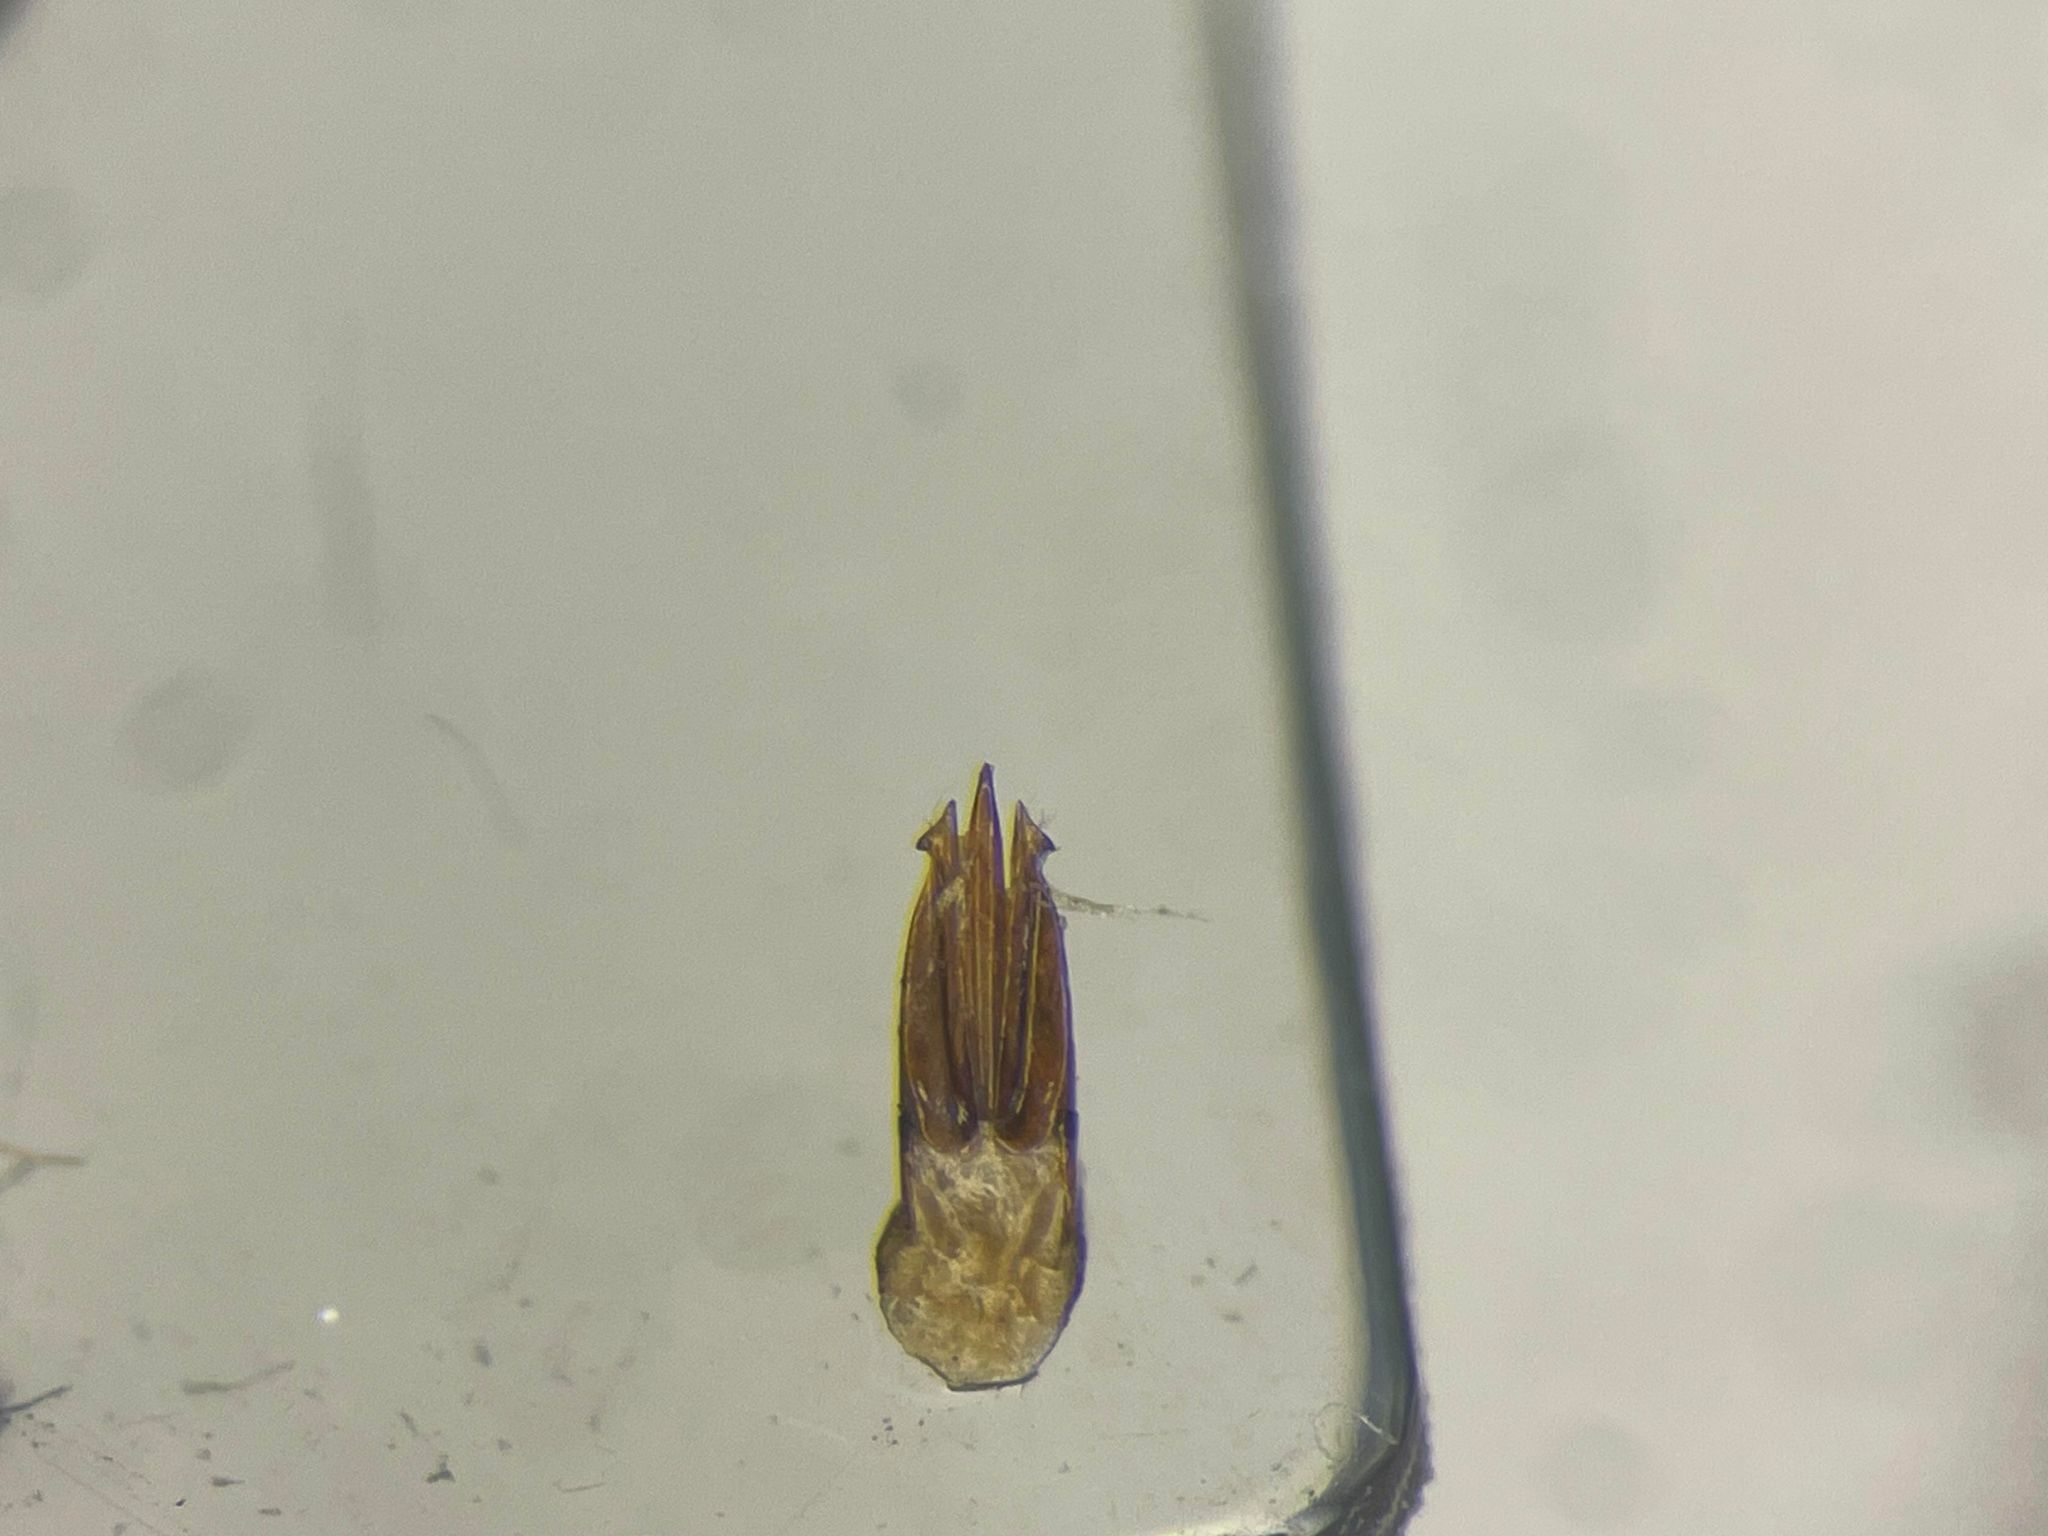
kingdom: Animalia
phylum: Arthropoda
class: Insecta
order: Coleoptera
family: Elateridae
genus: Ampedus
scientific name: Ampedus apicatus
